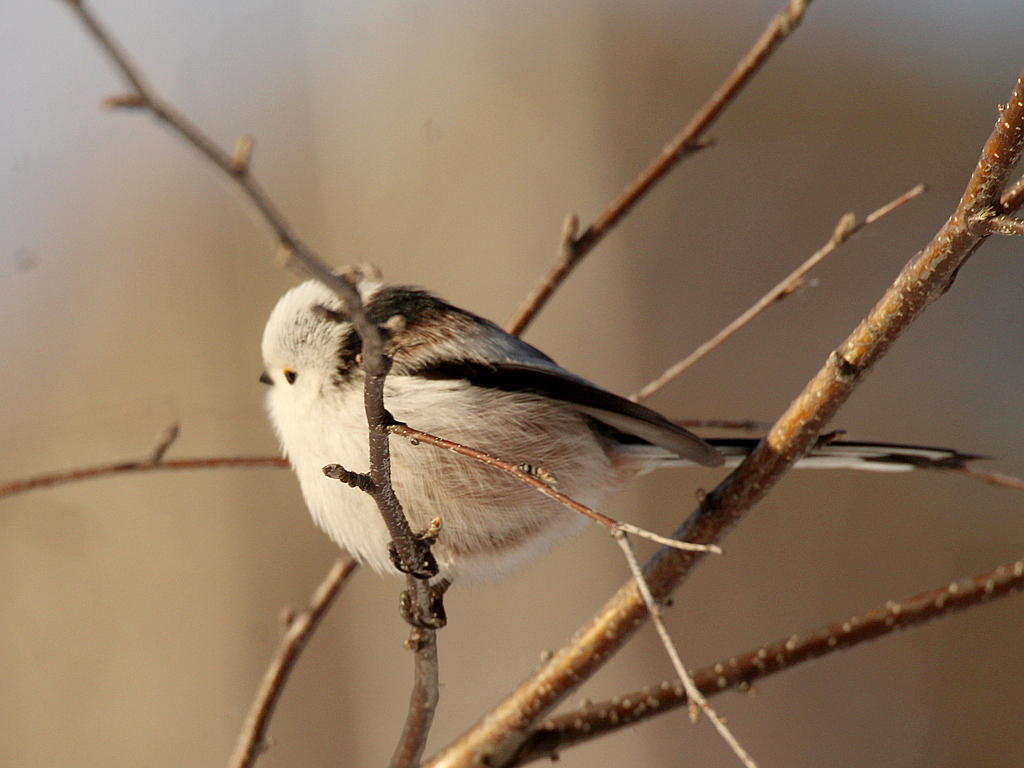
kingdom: Animalia
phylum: Chordata
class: Aves
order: Passeriformes
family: Aegithalidae
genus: Aegithalos
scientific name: Aegithalos caudatus
